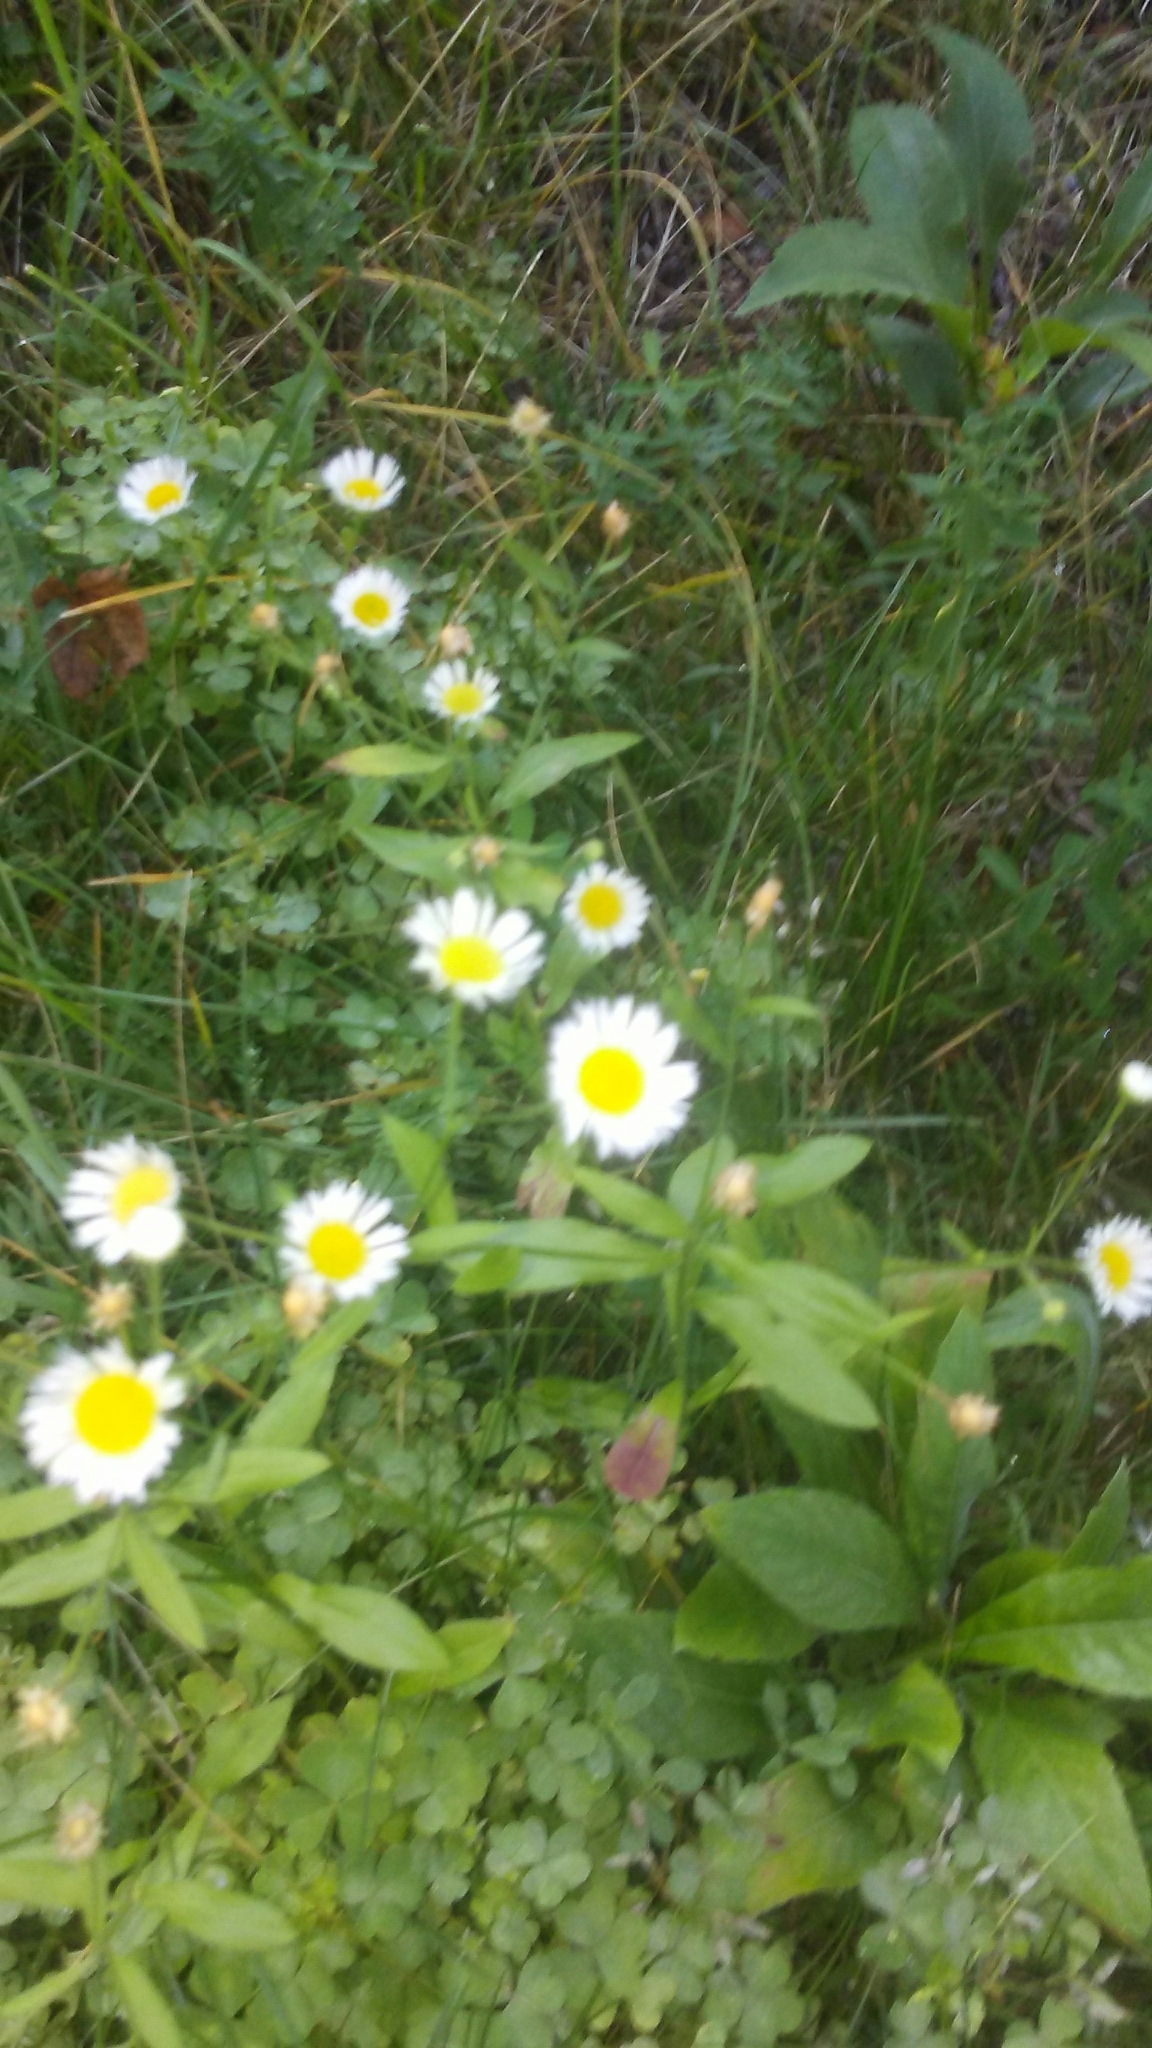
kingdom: Plantae
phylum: Tracheophyta
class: Magnoliopsida
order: Asterales
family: Asteraceae
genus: Erigeron
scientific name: Erigeron strigosus
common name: Common eastern fleabane
